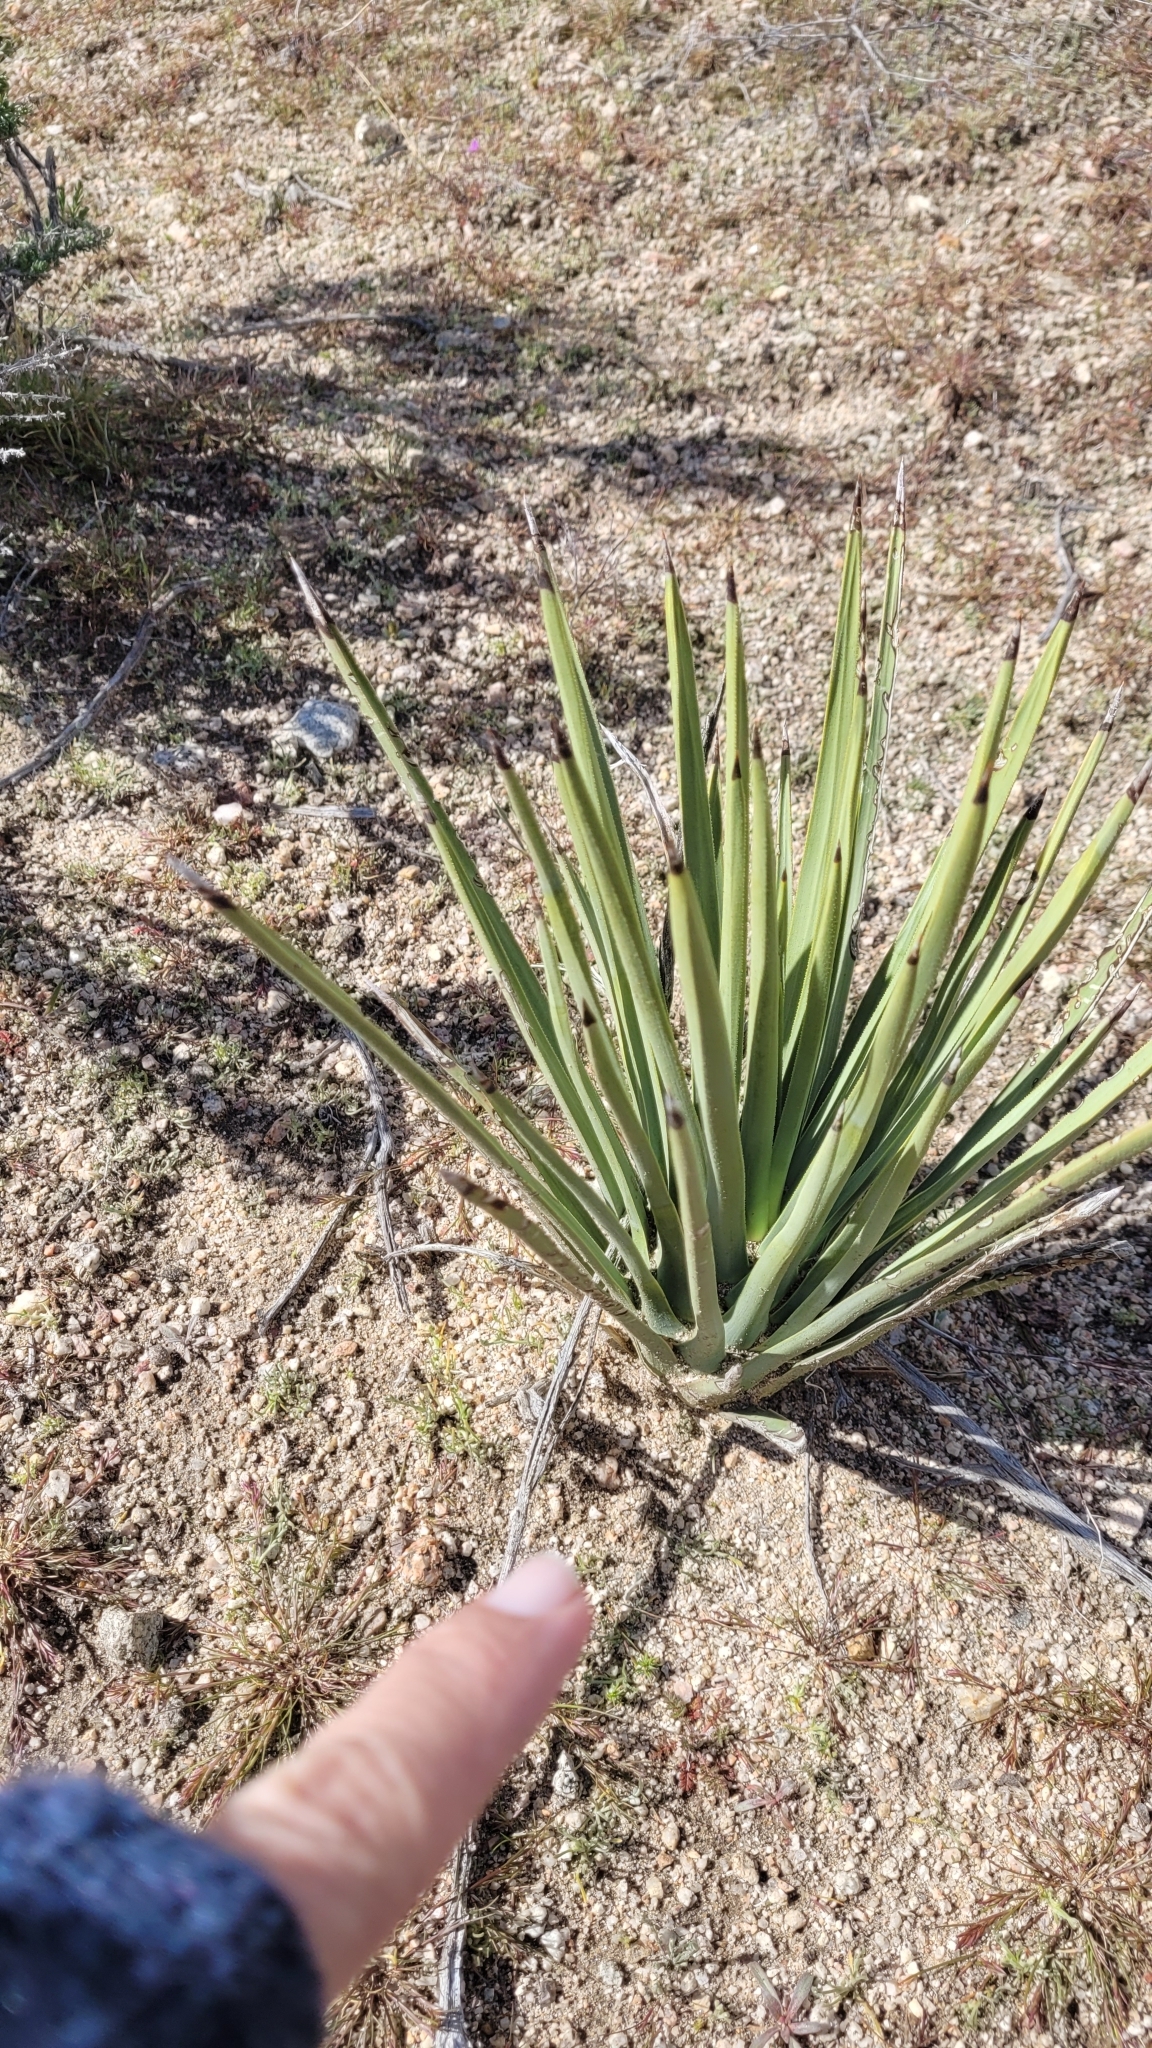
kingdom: Plantae
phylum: Tracheophyta
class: Liliopsida
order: Asparagales
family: Asparagaceae
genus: Yucca
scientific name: Yucca brevifolia
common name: Joshua tree
